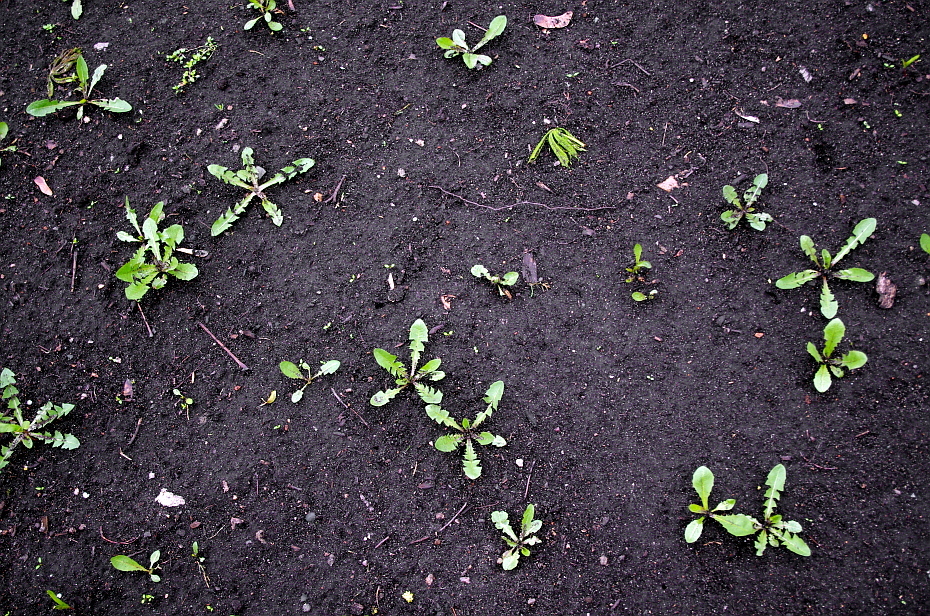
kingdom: Plantae
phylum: Tracheophyta
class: Magnoliopsida
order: Asterales
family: Asteraceae
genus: Taraxacum
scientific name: Taraxacum officinale
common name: Common dandelion
